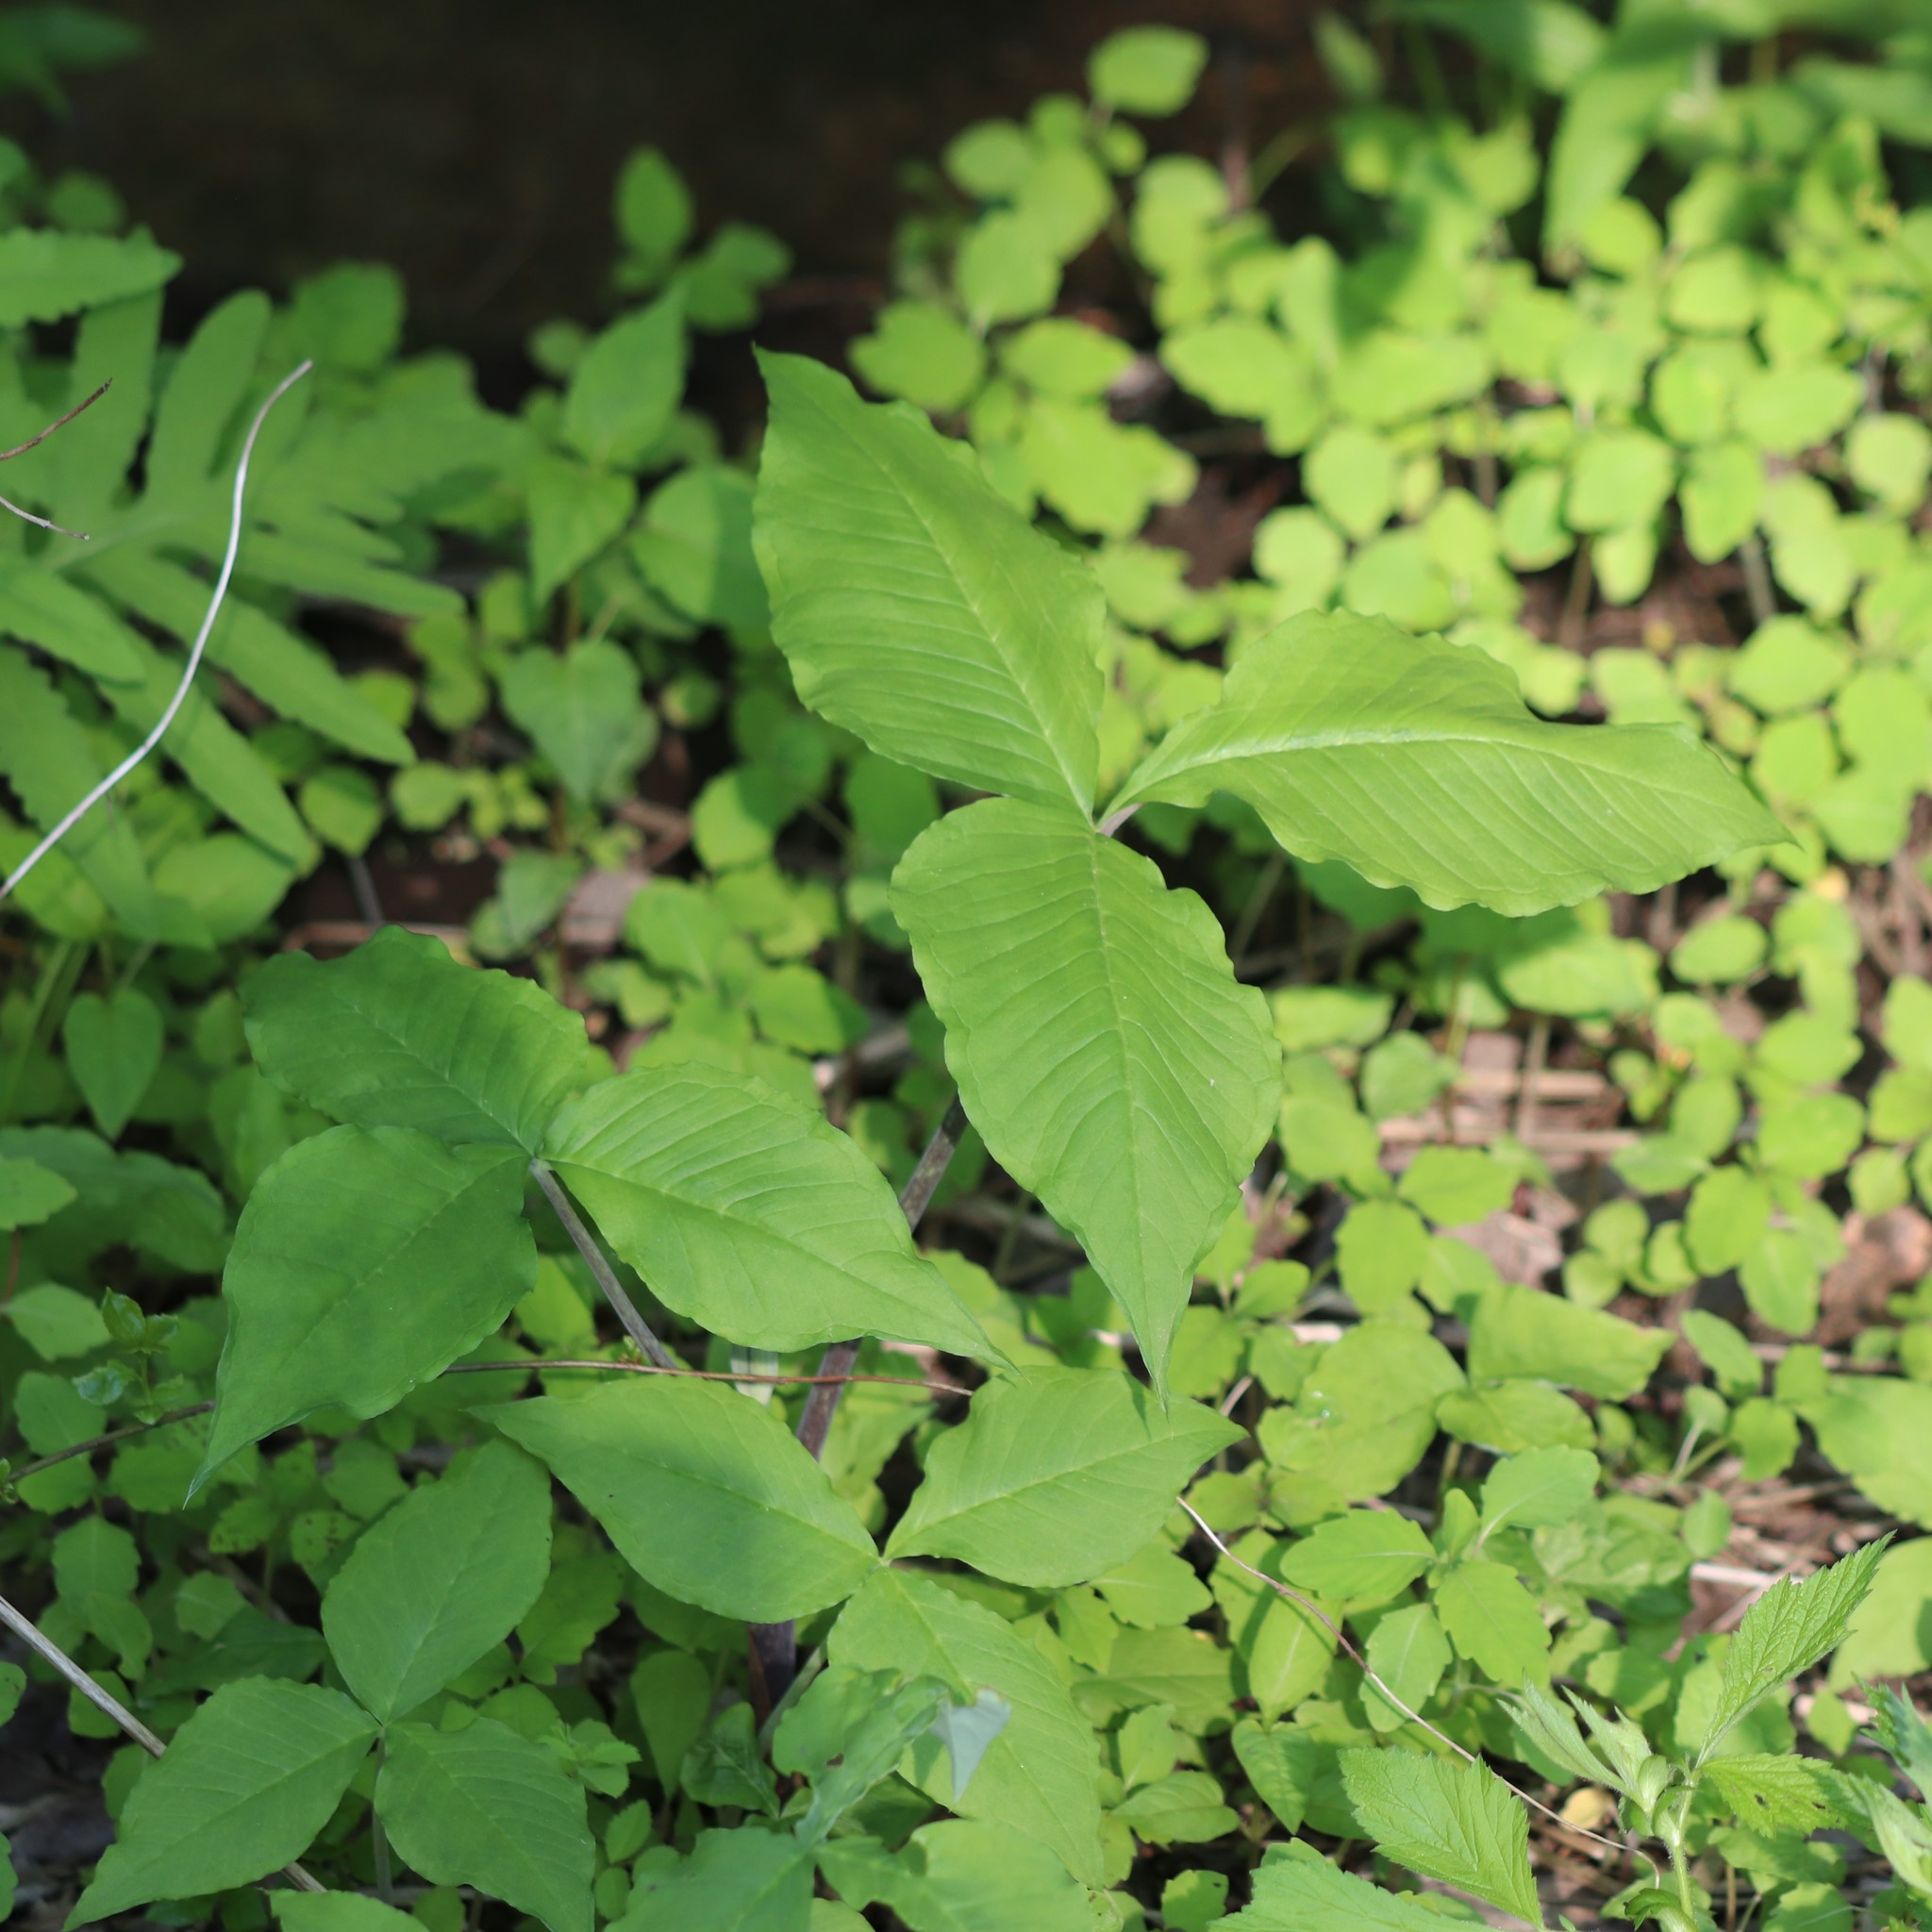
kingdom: Plantae
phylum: Tracheophyta
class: Liliopsida
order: Alismatales
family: Araceae
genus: Arisaema
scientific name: Arisaema triphyllum
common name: Jack-in-the-pulpit
